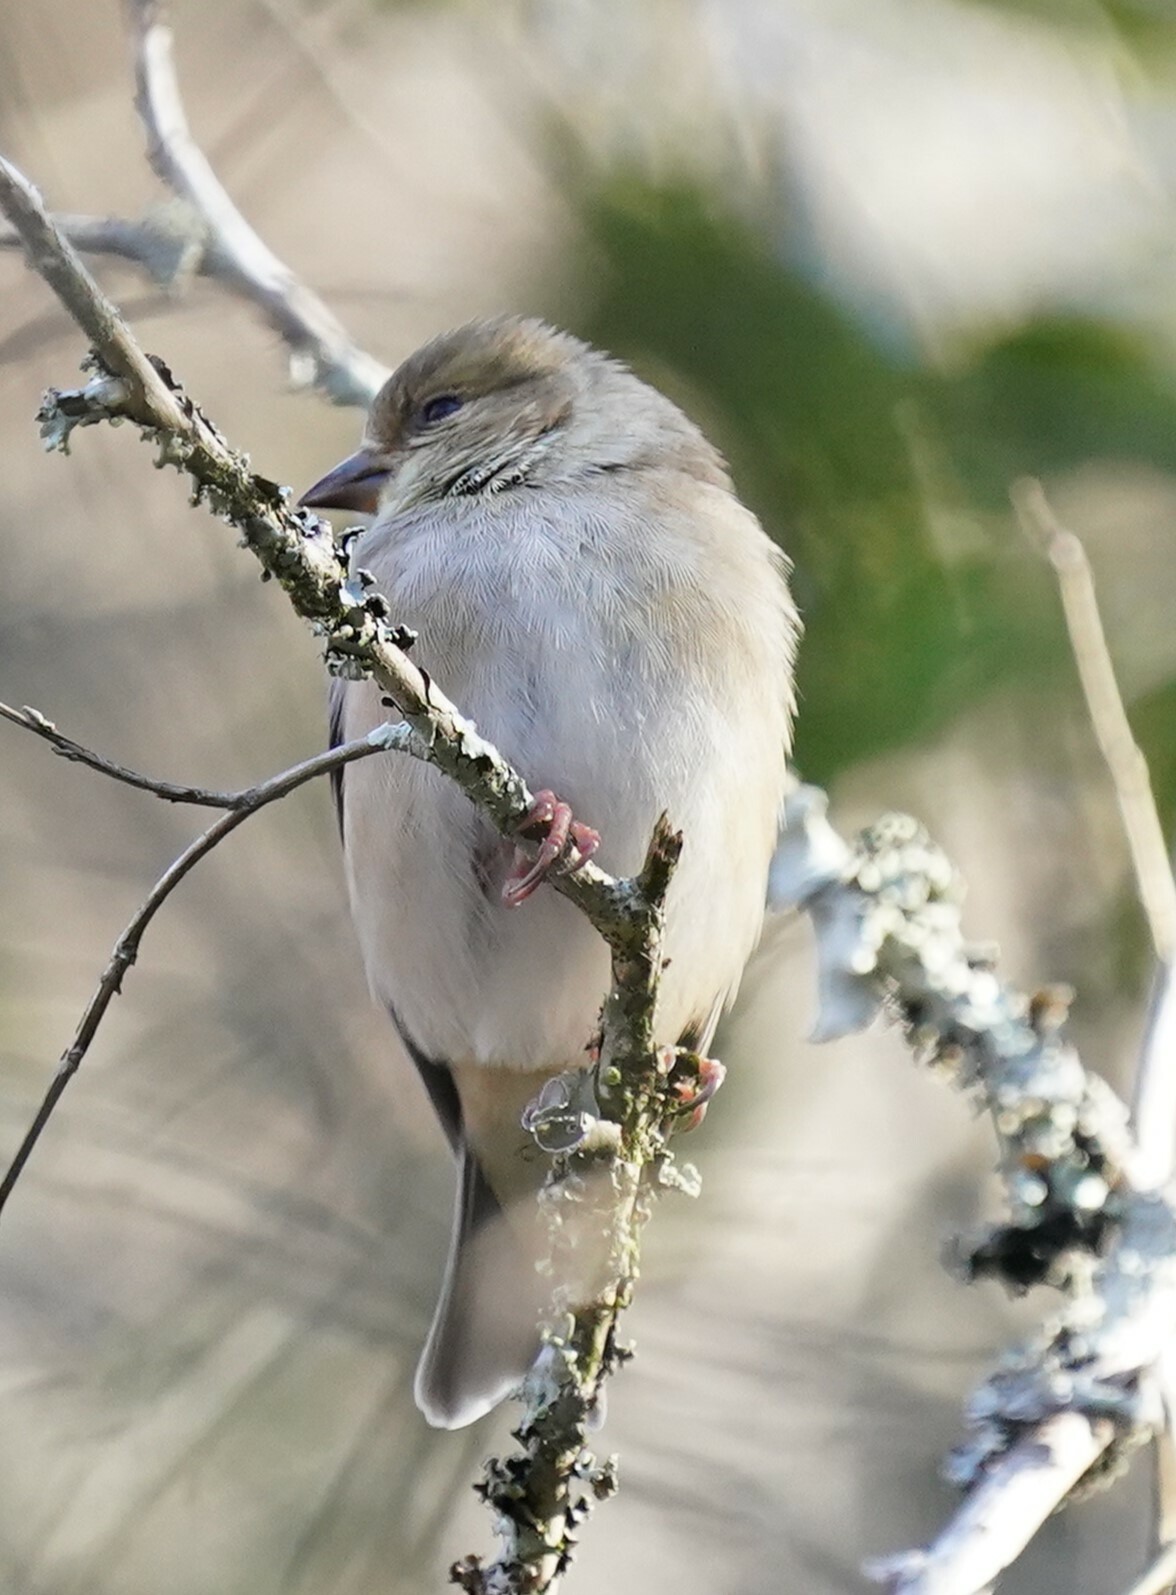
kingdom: Animalia
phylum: Chordata
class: Aves
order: Passeriformes
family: Fringillidae
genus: Spinus
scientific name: Spinus tristis
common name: American goldfinch
